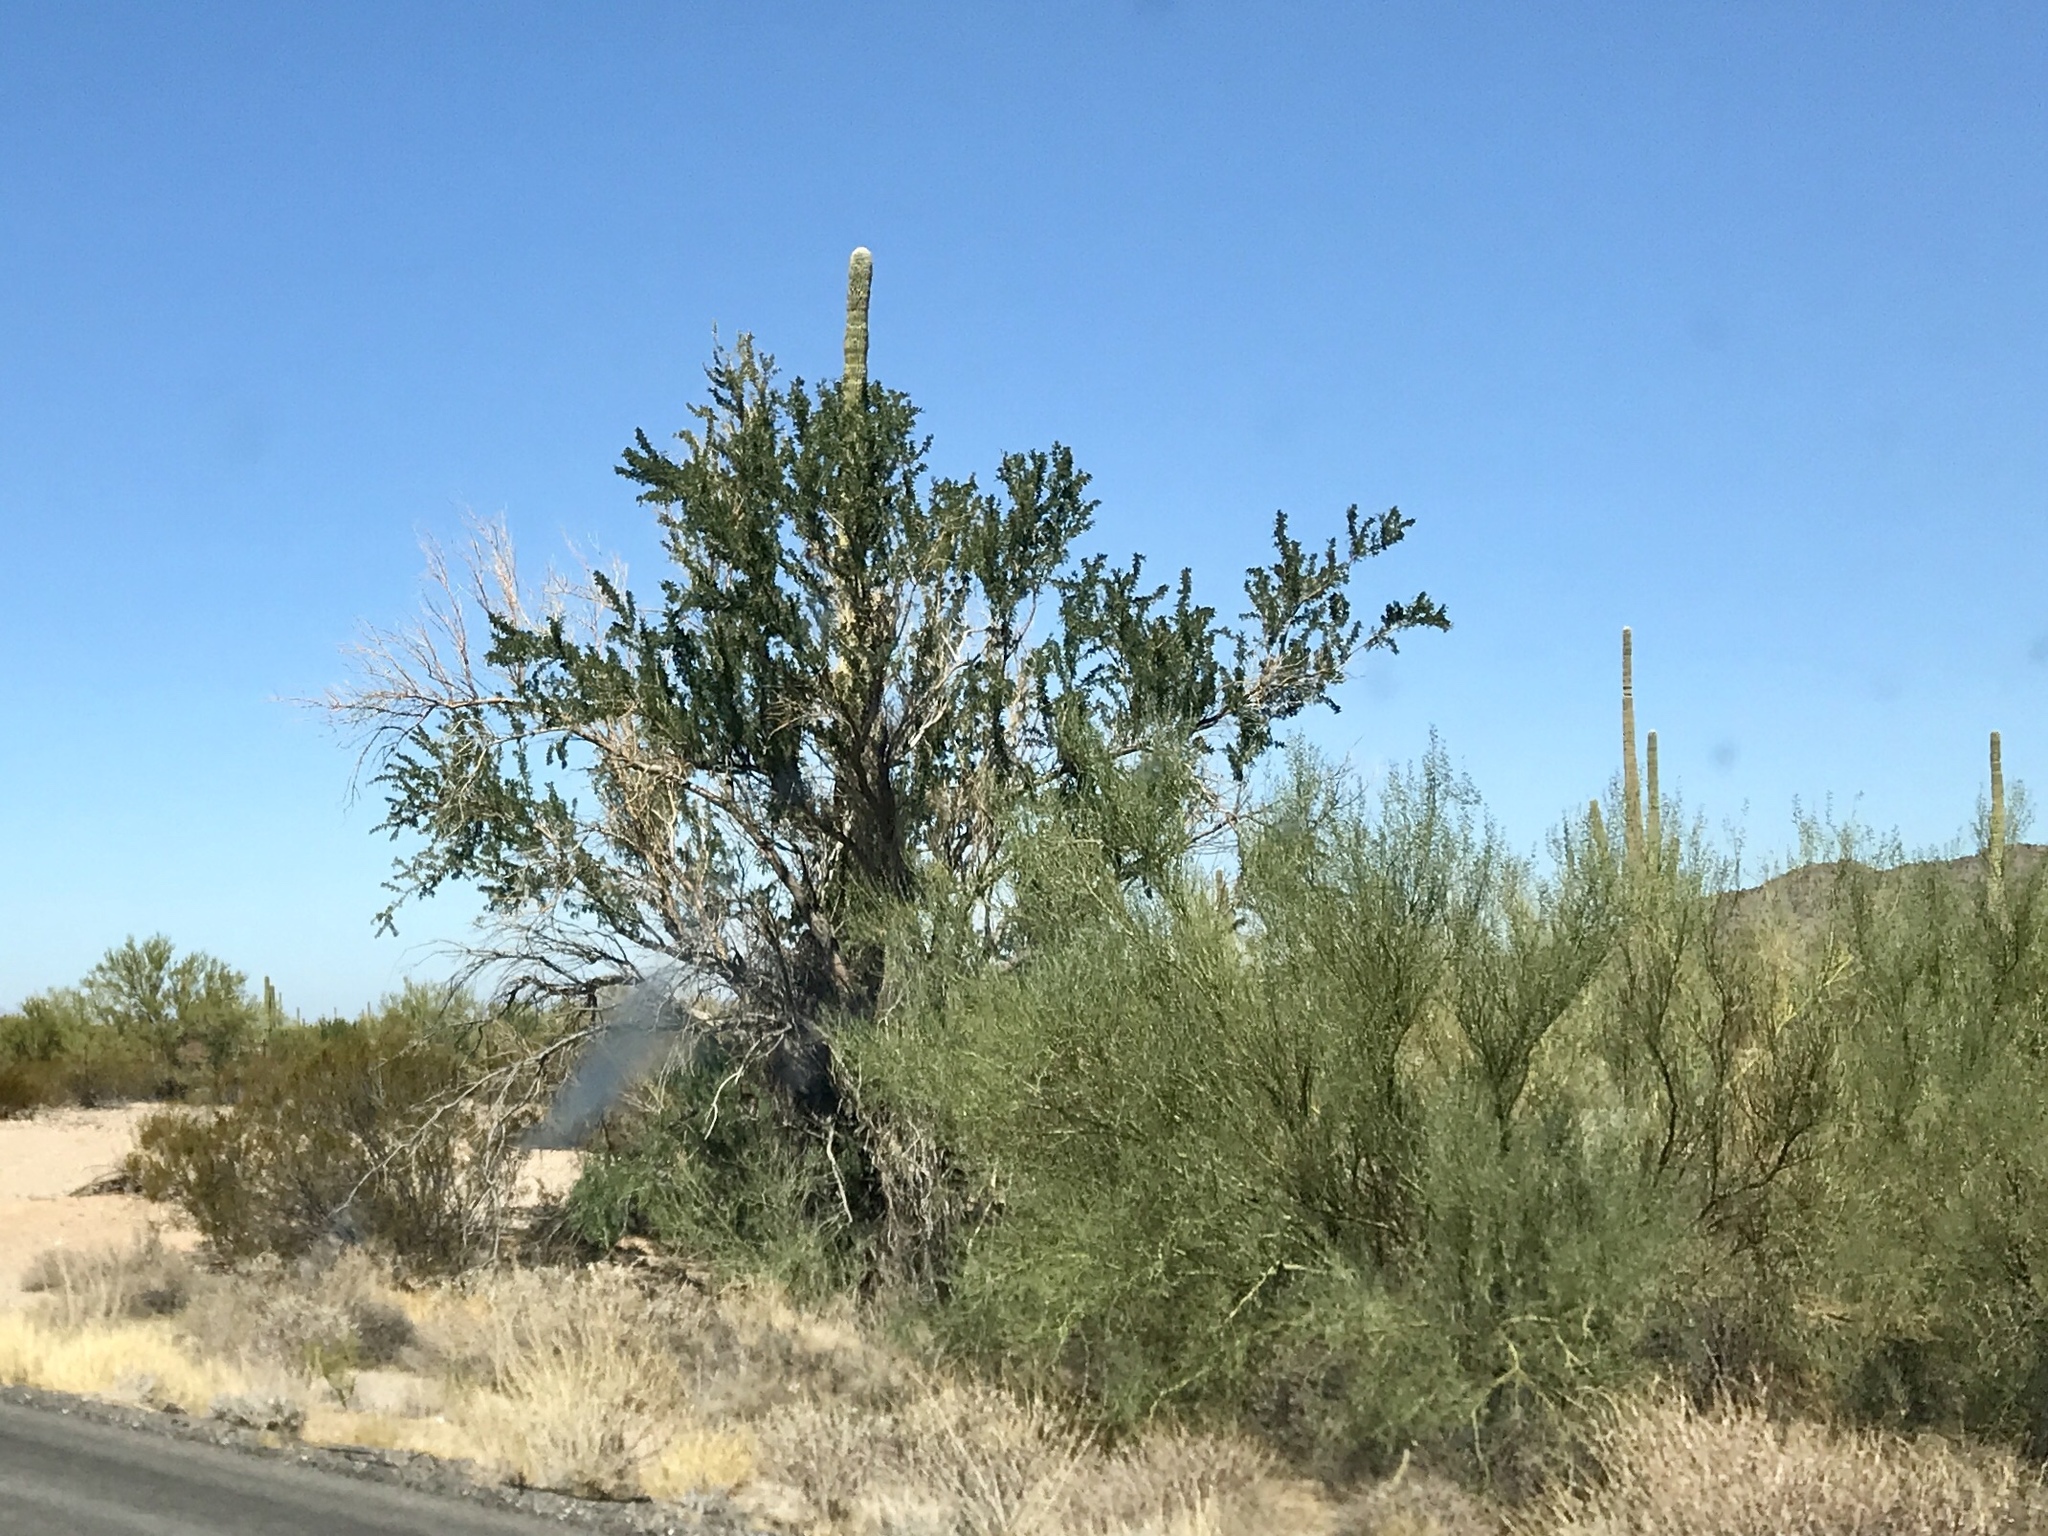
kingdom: Plantae
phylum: Tracheophyta
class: Magnoliopsida
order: Fabales
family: Fabaceae
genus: Olneya
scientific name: Olneya tesota
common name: Desert ironwood
